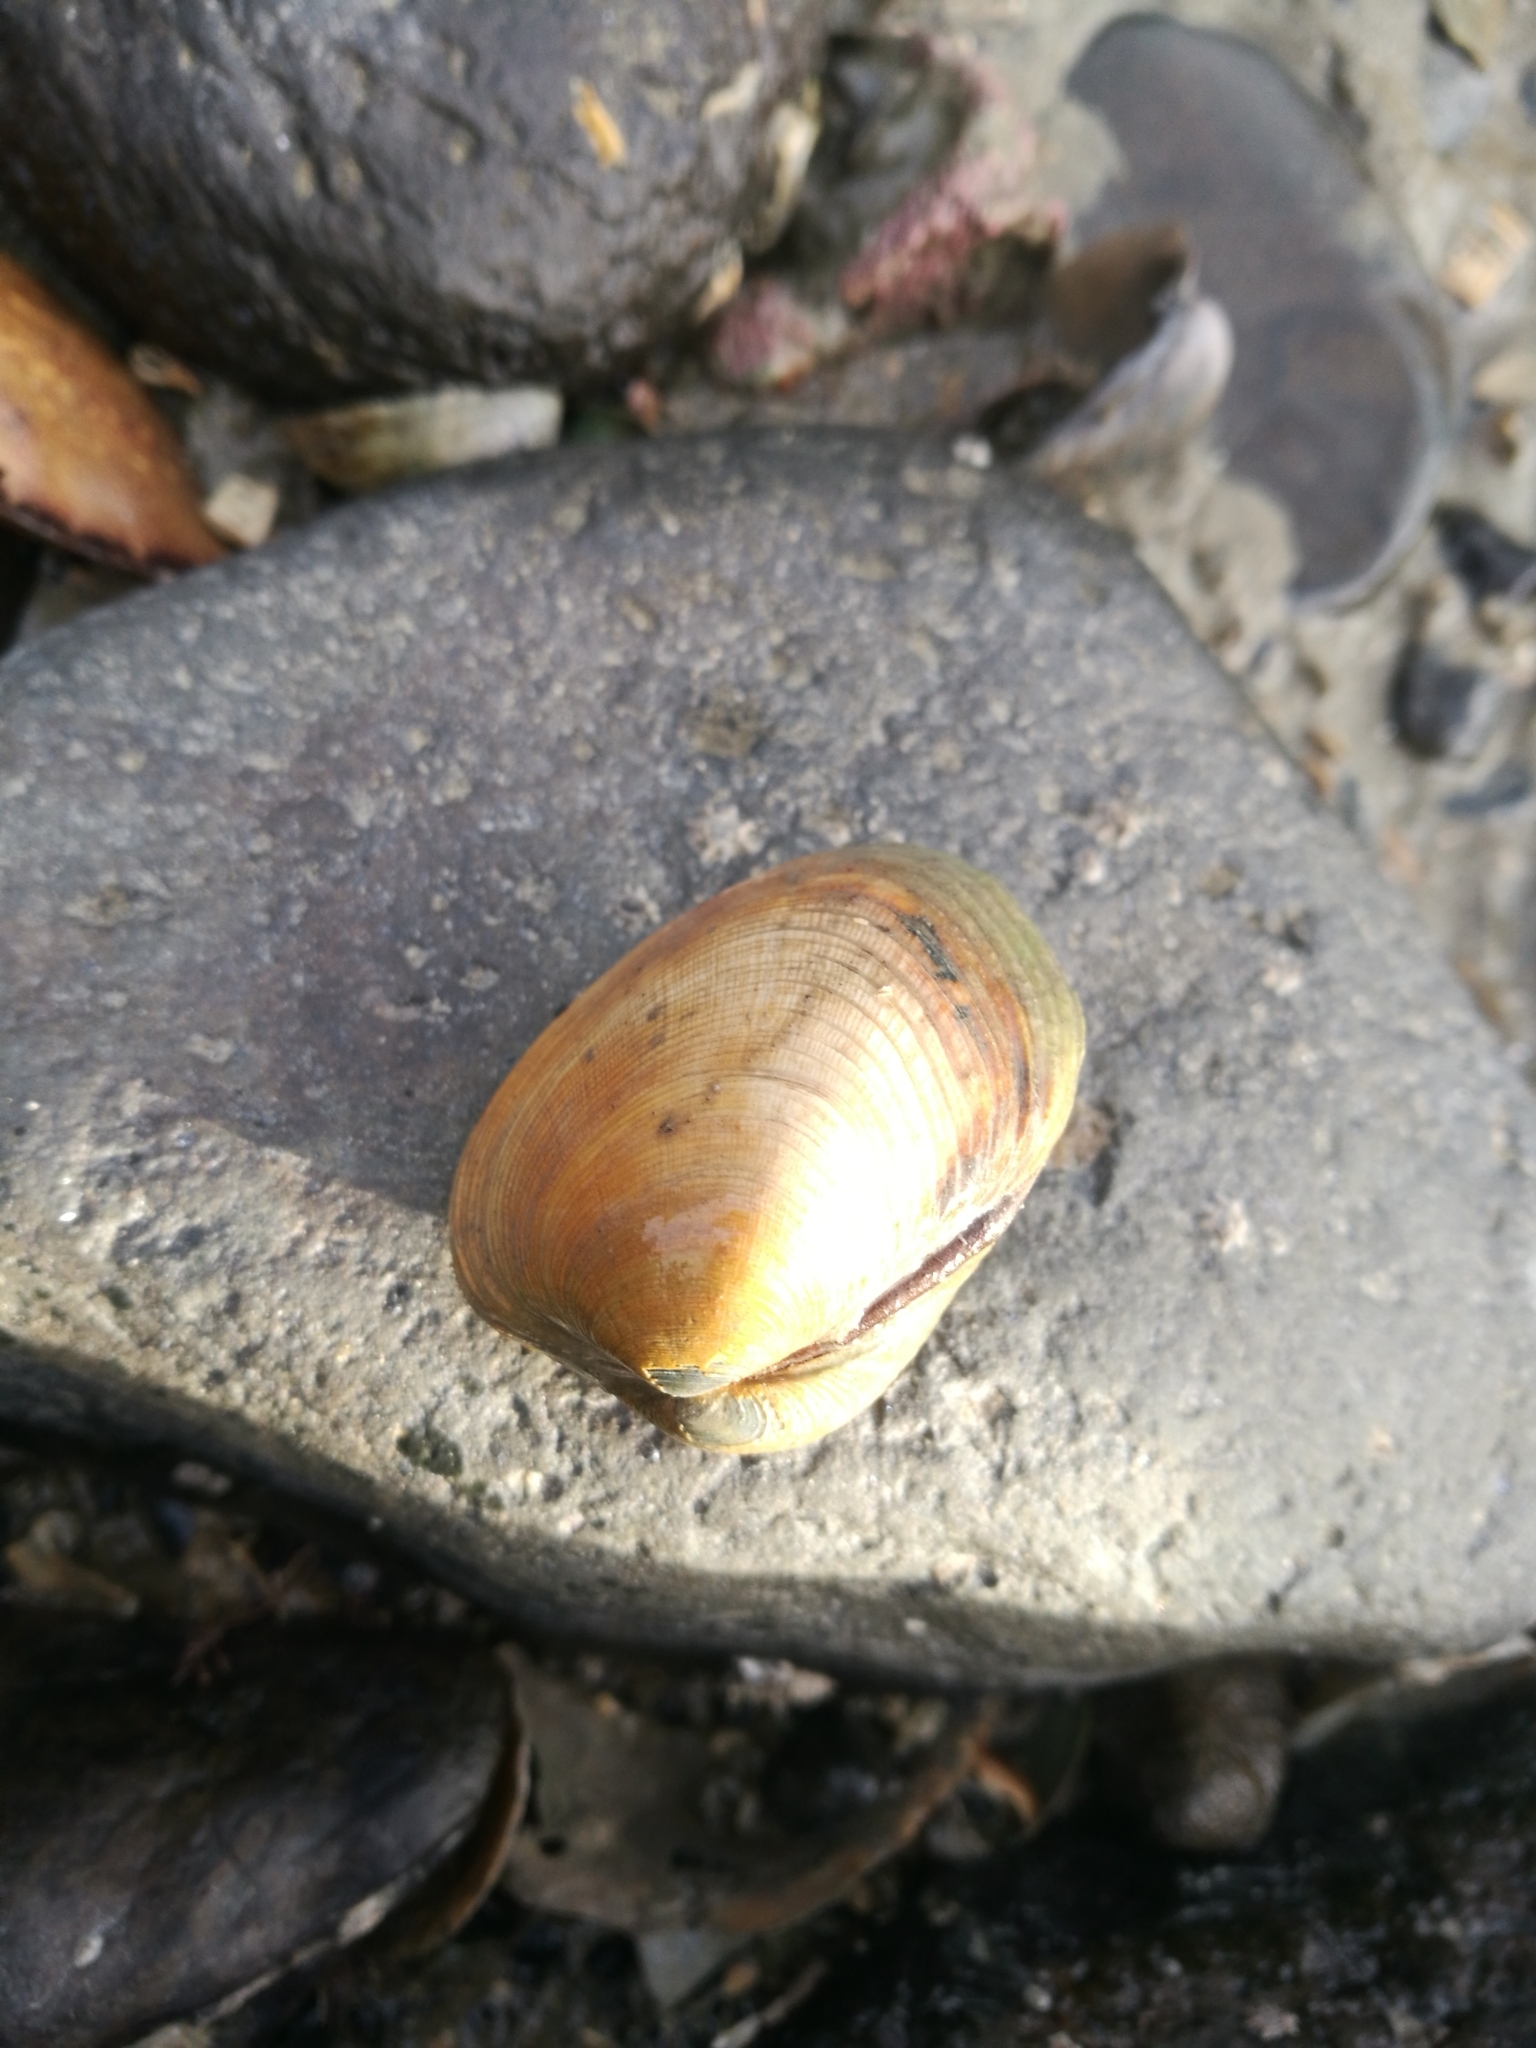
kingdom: Animalia
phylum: Mollusca
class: Bivalvia
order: Venerida
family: Veneridae
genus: Venerupis
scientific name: Venerupis largillierti
